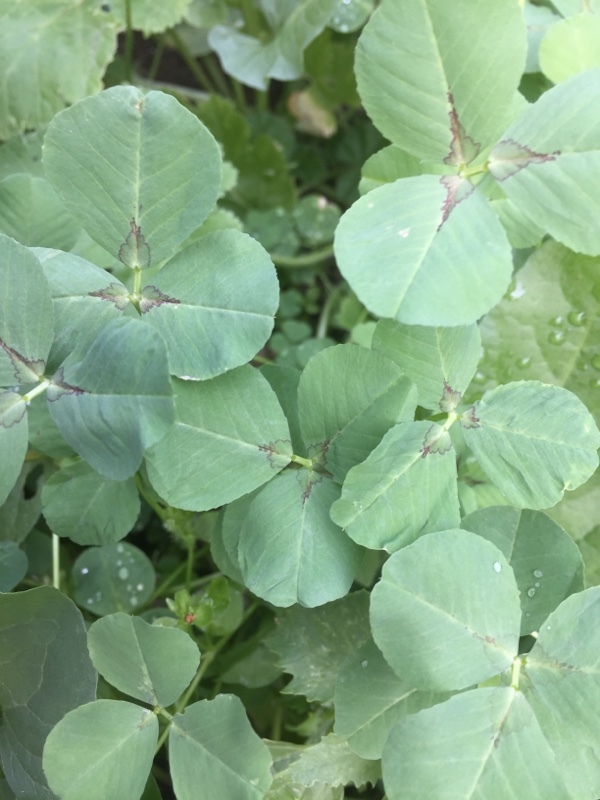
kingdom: Plantae
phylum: Tracheophyta
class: Magnoliopsida
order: Fabales
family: Fabaceae
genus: Medicago
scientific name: Medicago arabica
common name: Spotted medick
